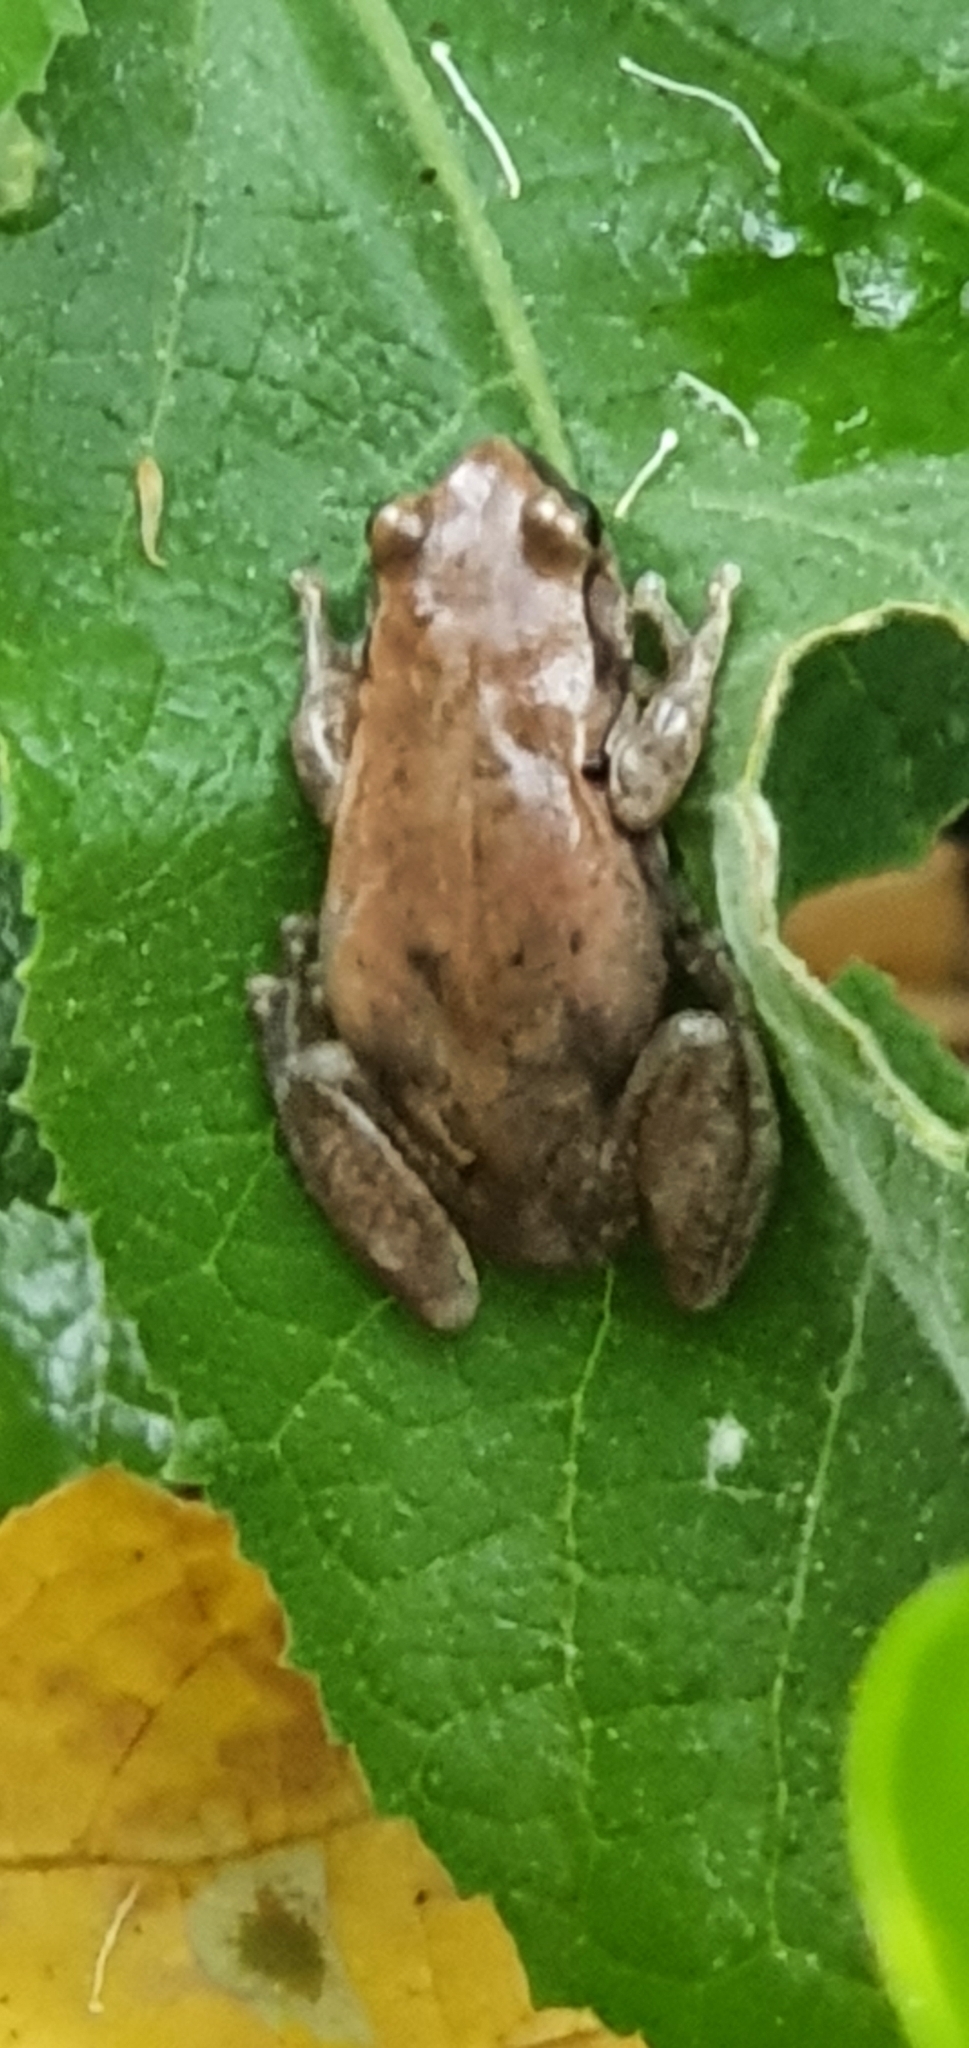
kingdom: Animalia
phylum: Chordata
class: Amphibia
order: Anura
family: Pelodryadidae
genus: Litoria
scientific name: Litoria rubella
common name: Desert tree frog
